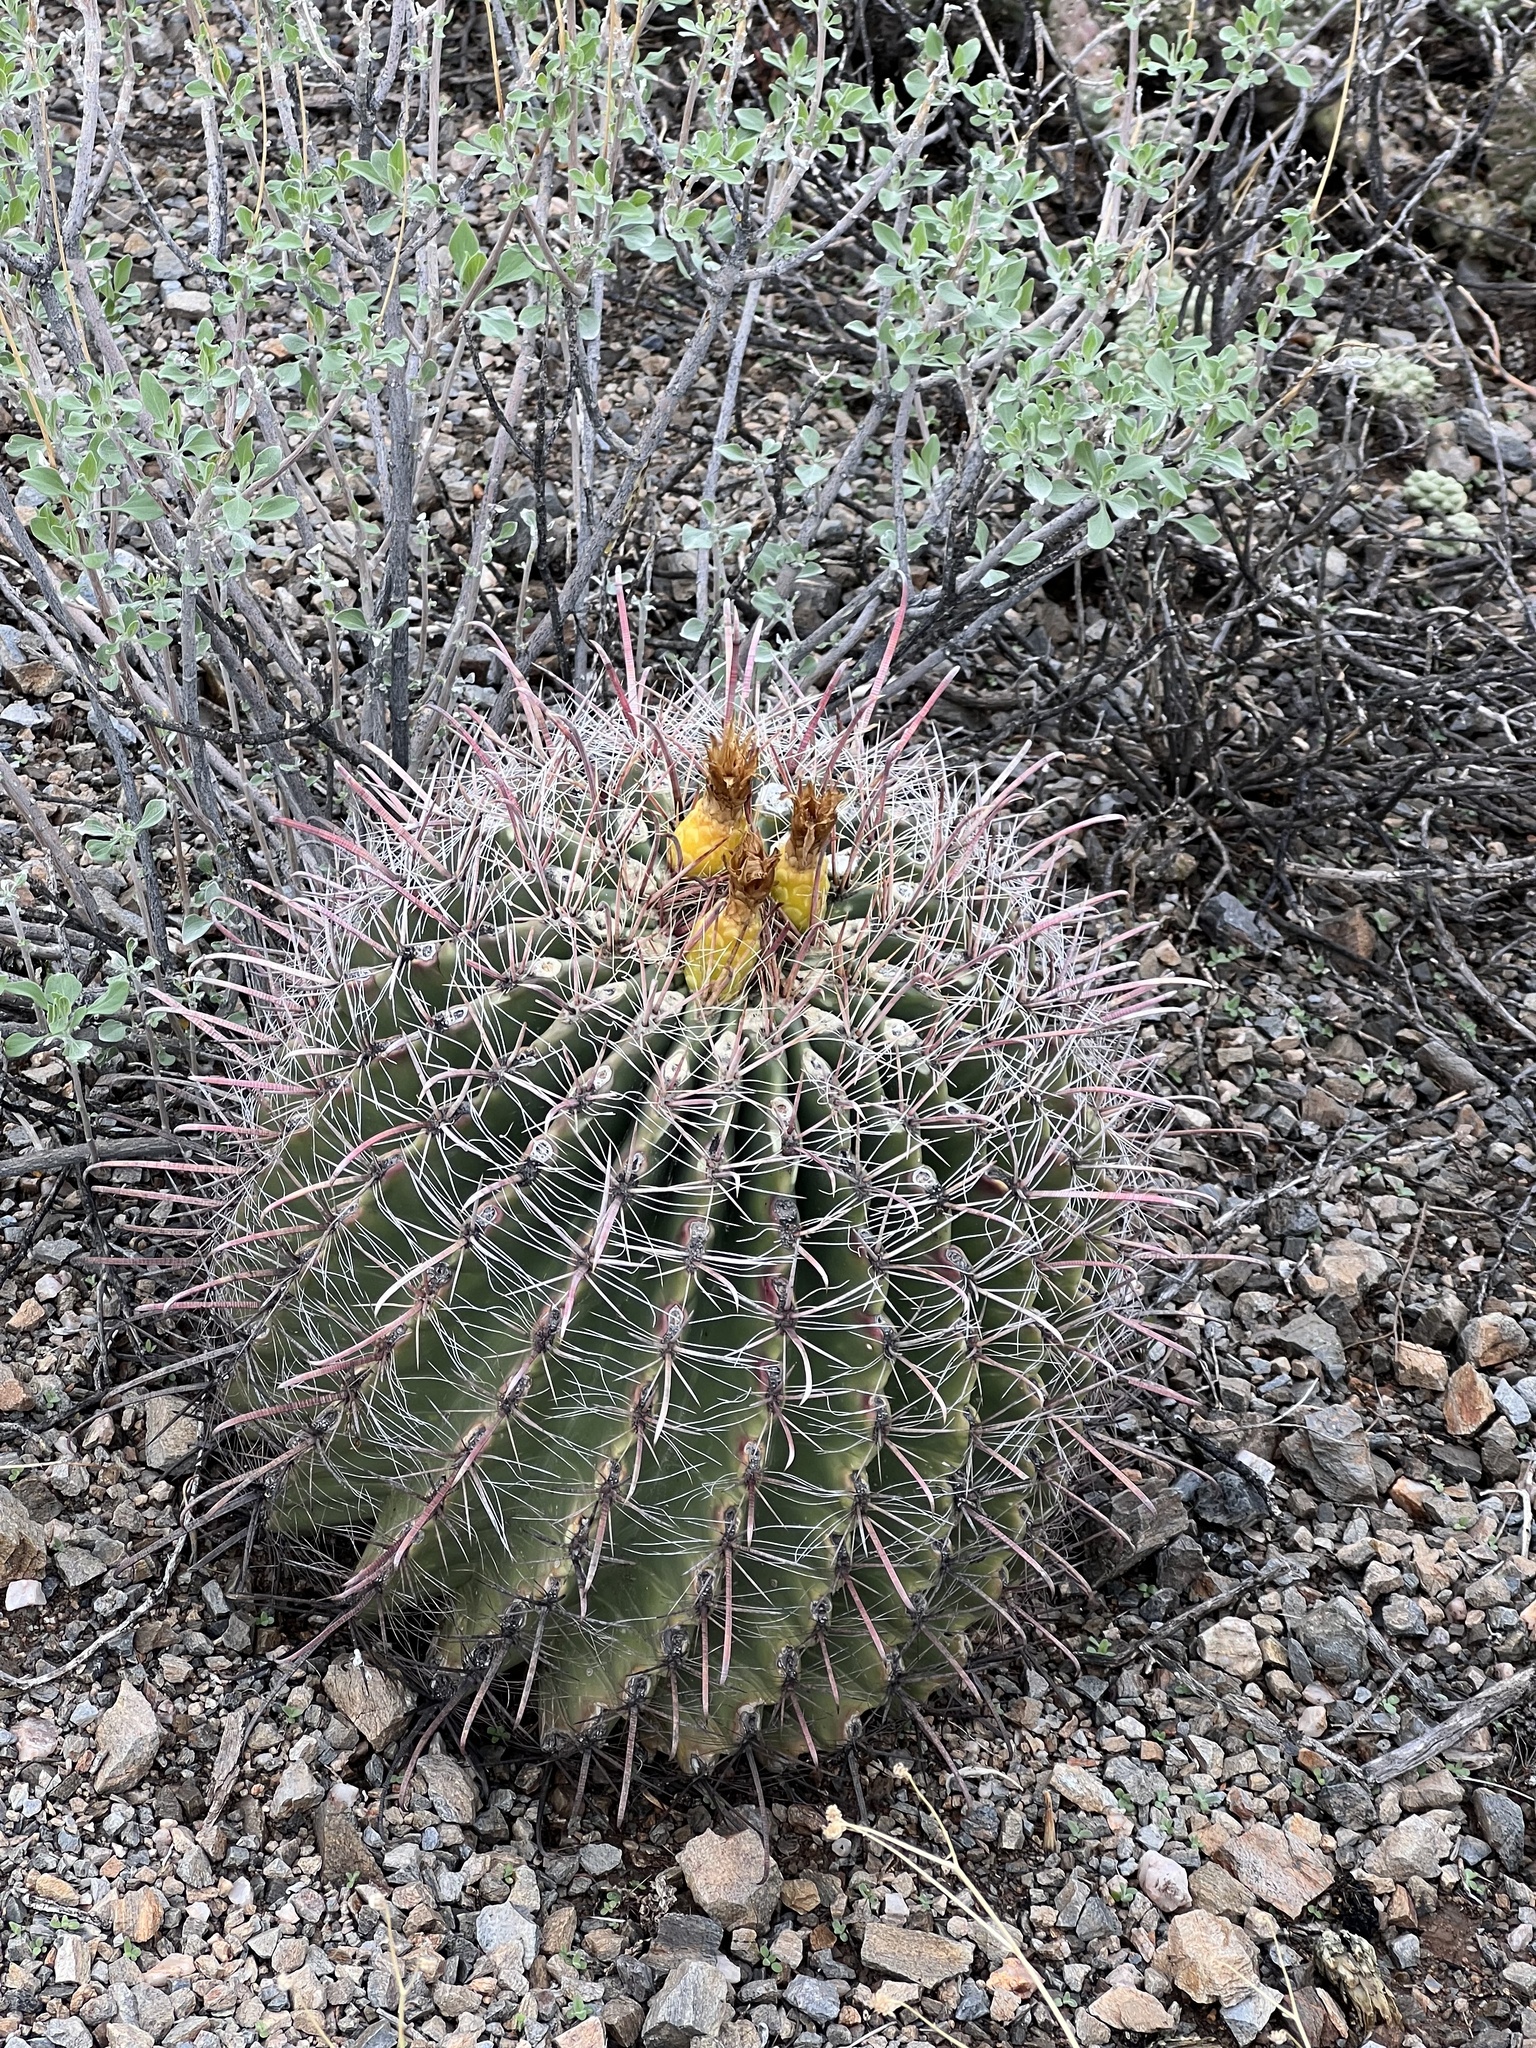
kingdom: Plantae
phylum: Tracheophyta
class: Magnoliopsida
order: Caryophyllales
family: Cactaceae
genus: Ferocactus
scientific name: Ferocactus wislizeni
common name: Candy barrel cactus
